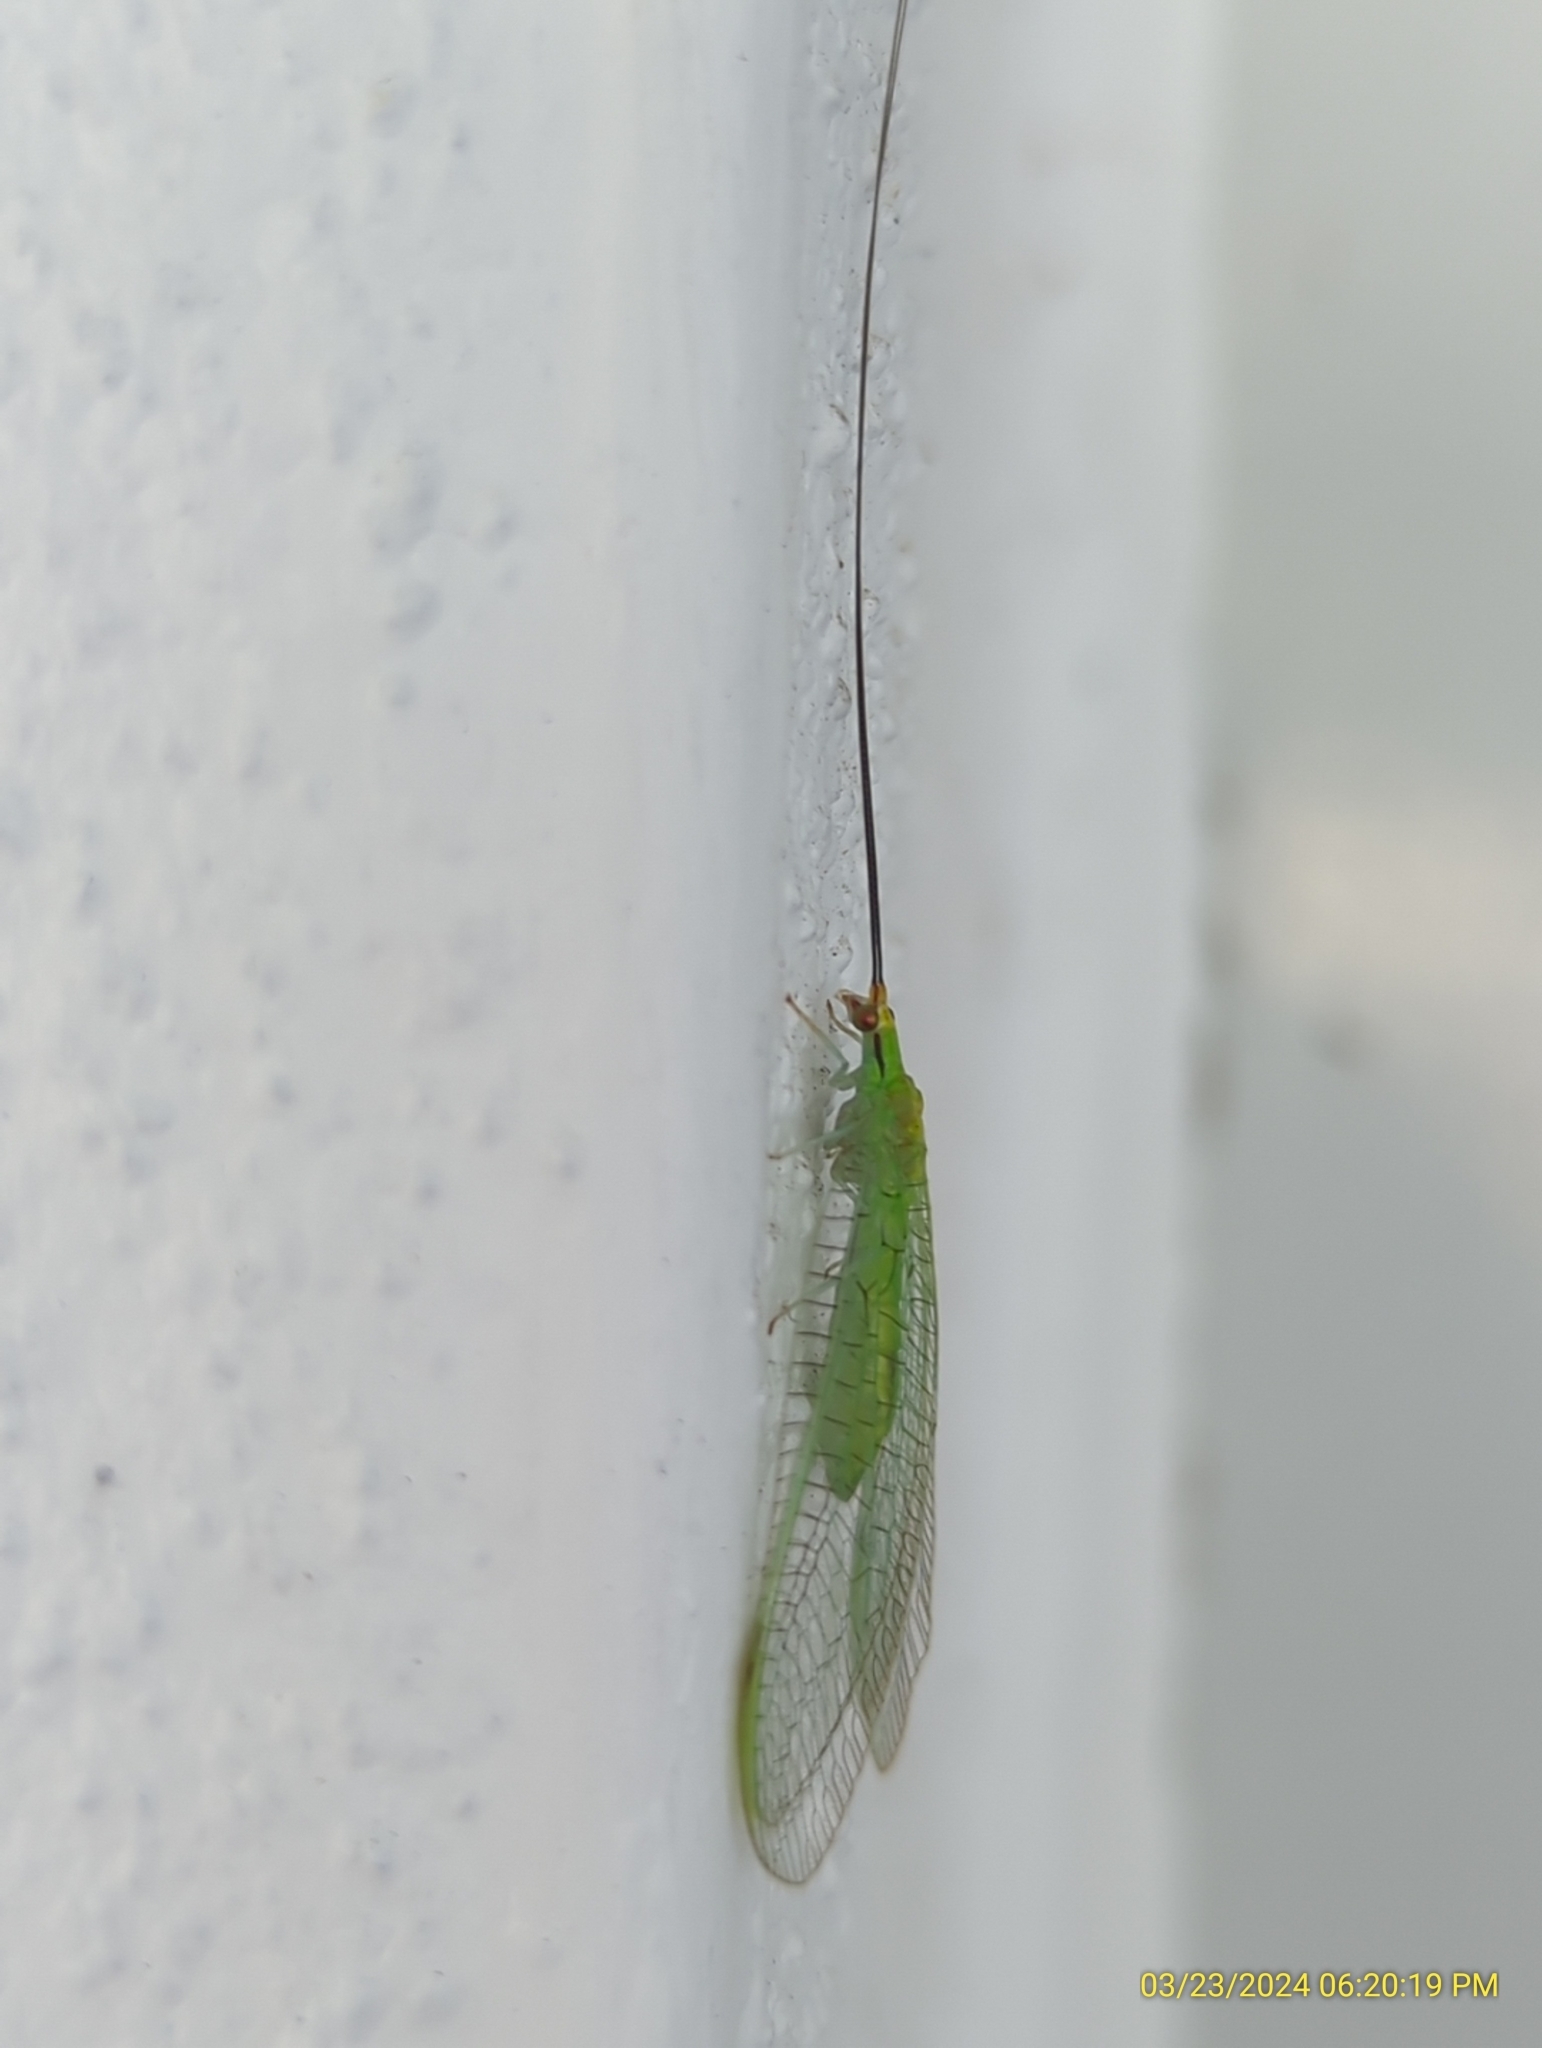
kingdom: Animalia
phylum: Arthropoda
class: Insecta
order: Neuroptera
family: Chrysopidae
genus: Leucochrysa
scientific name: Leucochrysa pavida
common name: Lichen-carrying green lacewing
